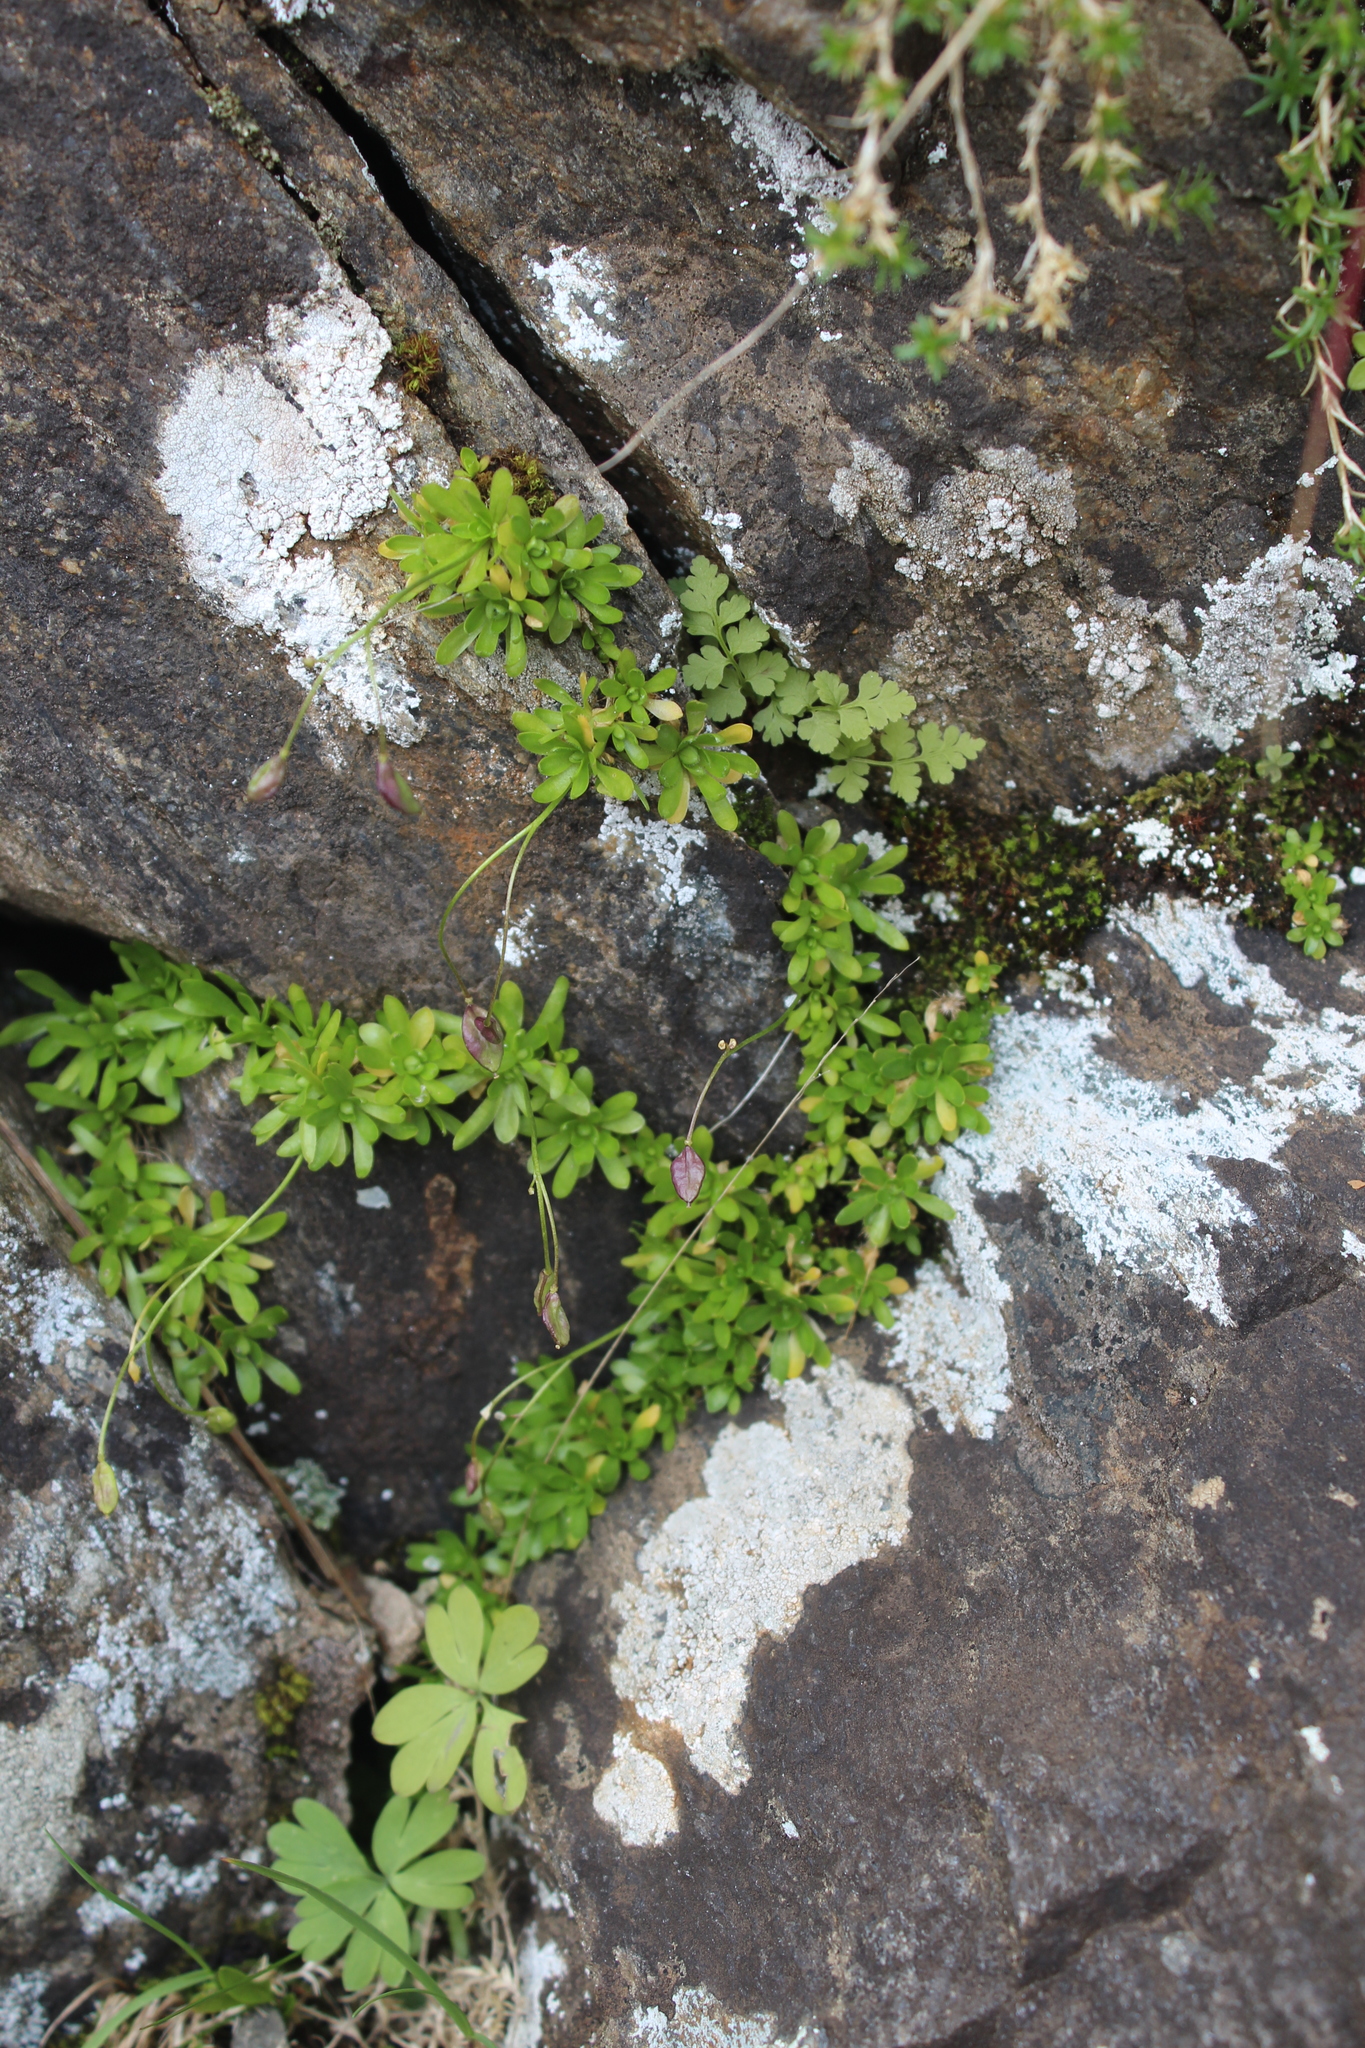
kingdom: Plantae
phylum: Tracheophyta
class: Magnoliopsida
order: Brassicales
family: Brassicaceae
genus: Draba
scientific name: Draba supranivalis
